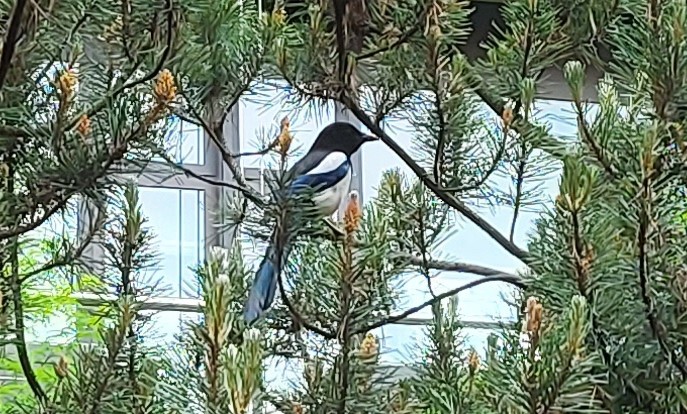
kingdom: Animalia
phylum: Chordata
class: Aves
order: Passeriformes
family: Corvidae
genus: Pica
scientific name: Pica pica
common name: Eurasian magpie
